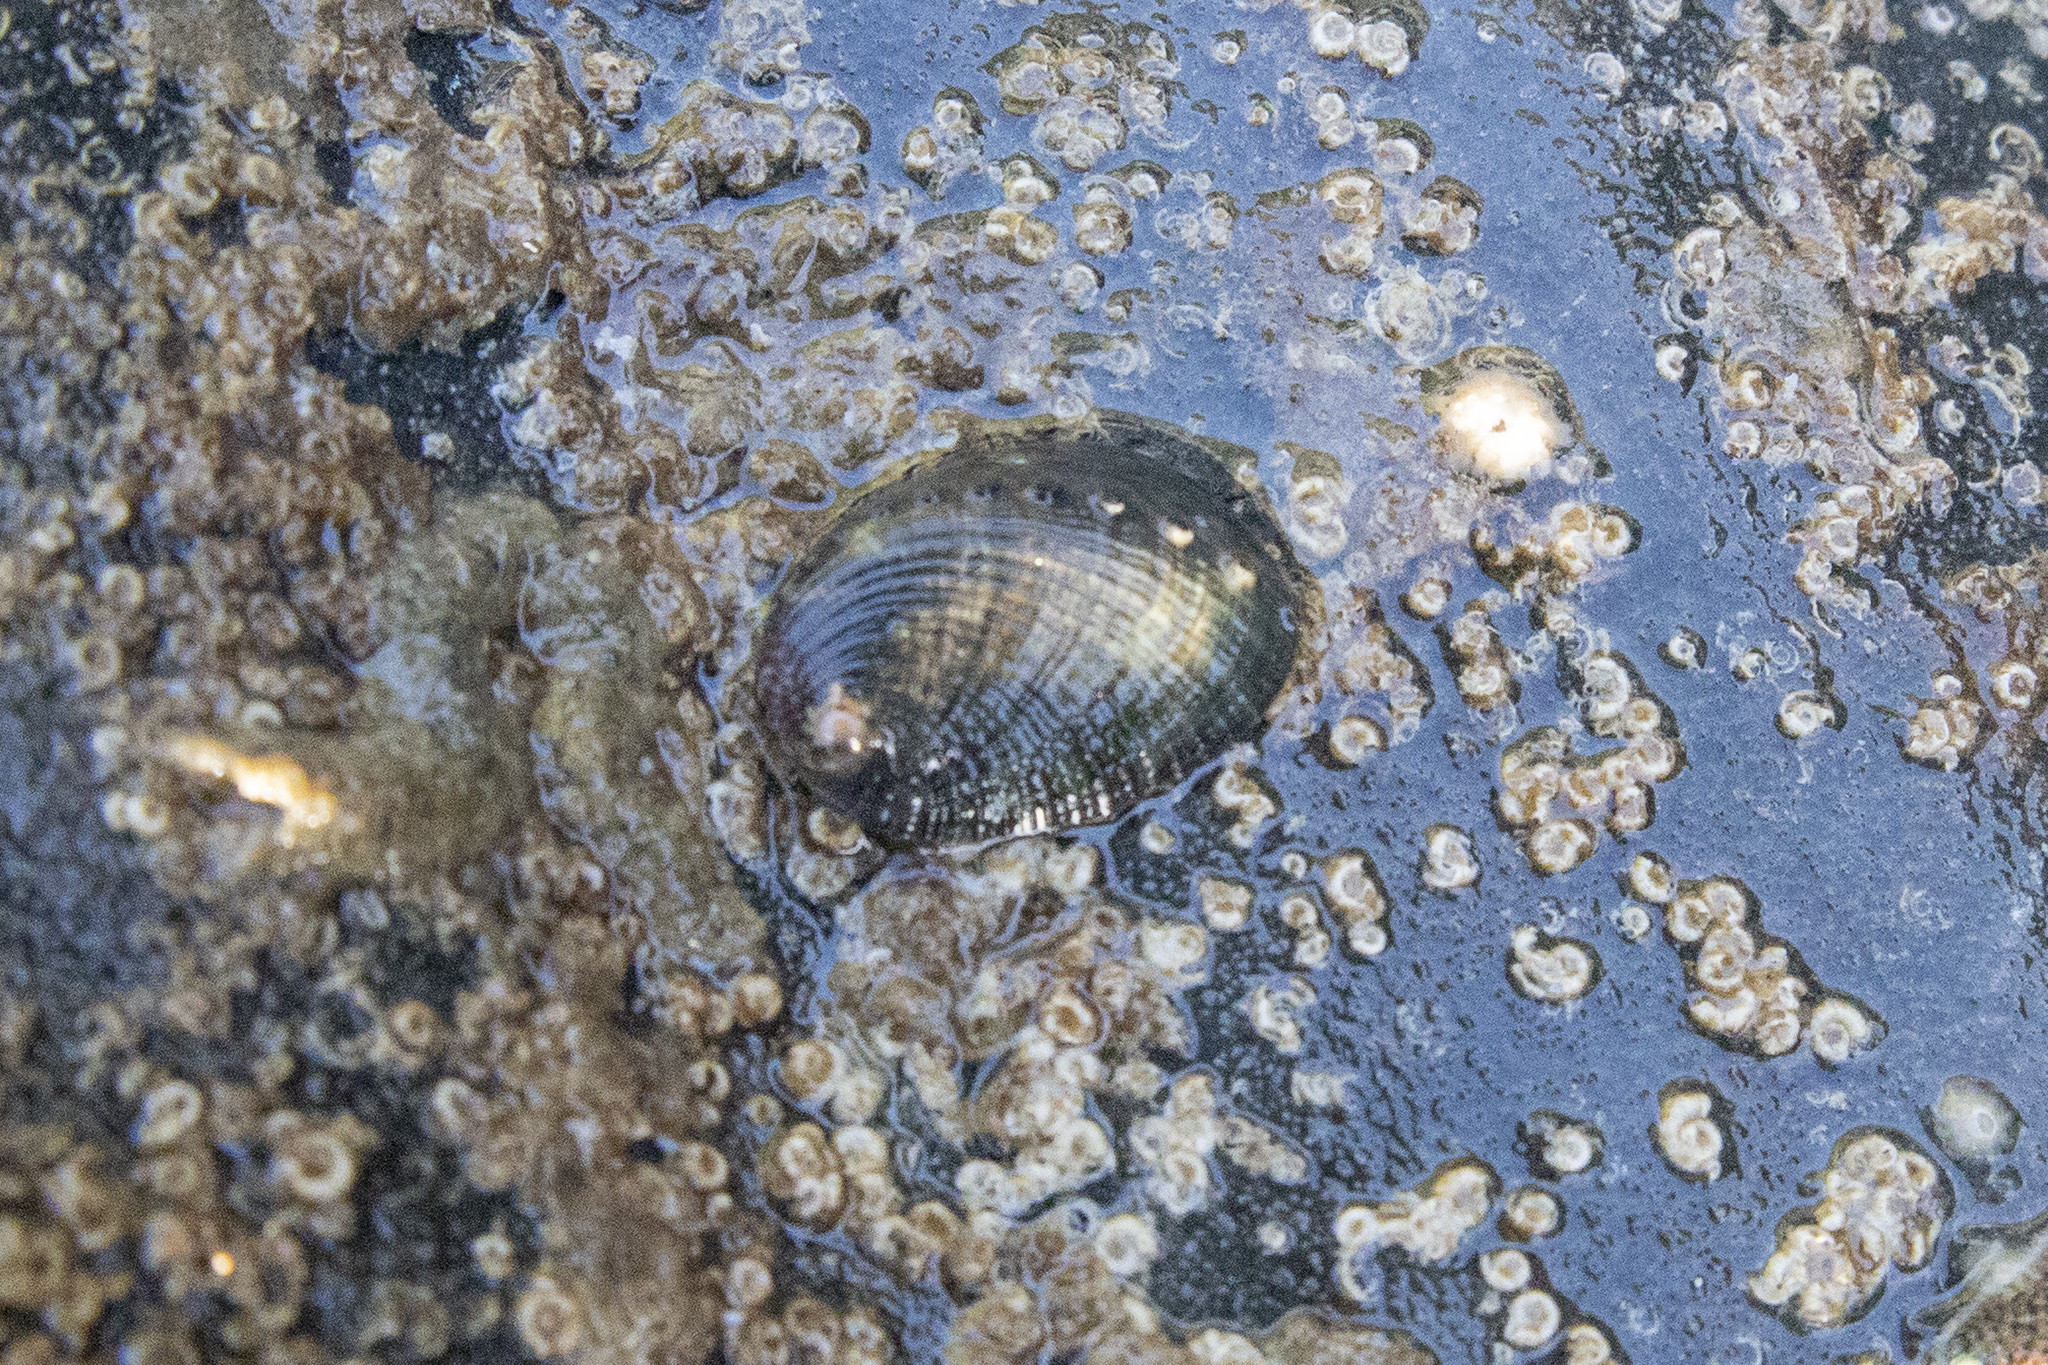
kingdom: Animalia
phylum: Mollusca
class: Gastropoda
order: Lepetellida
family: Haliotidae
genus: Haliotis
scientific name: Haliotis virginea
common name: Whitefoot paua
